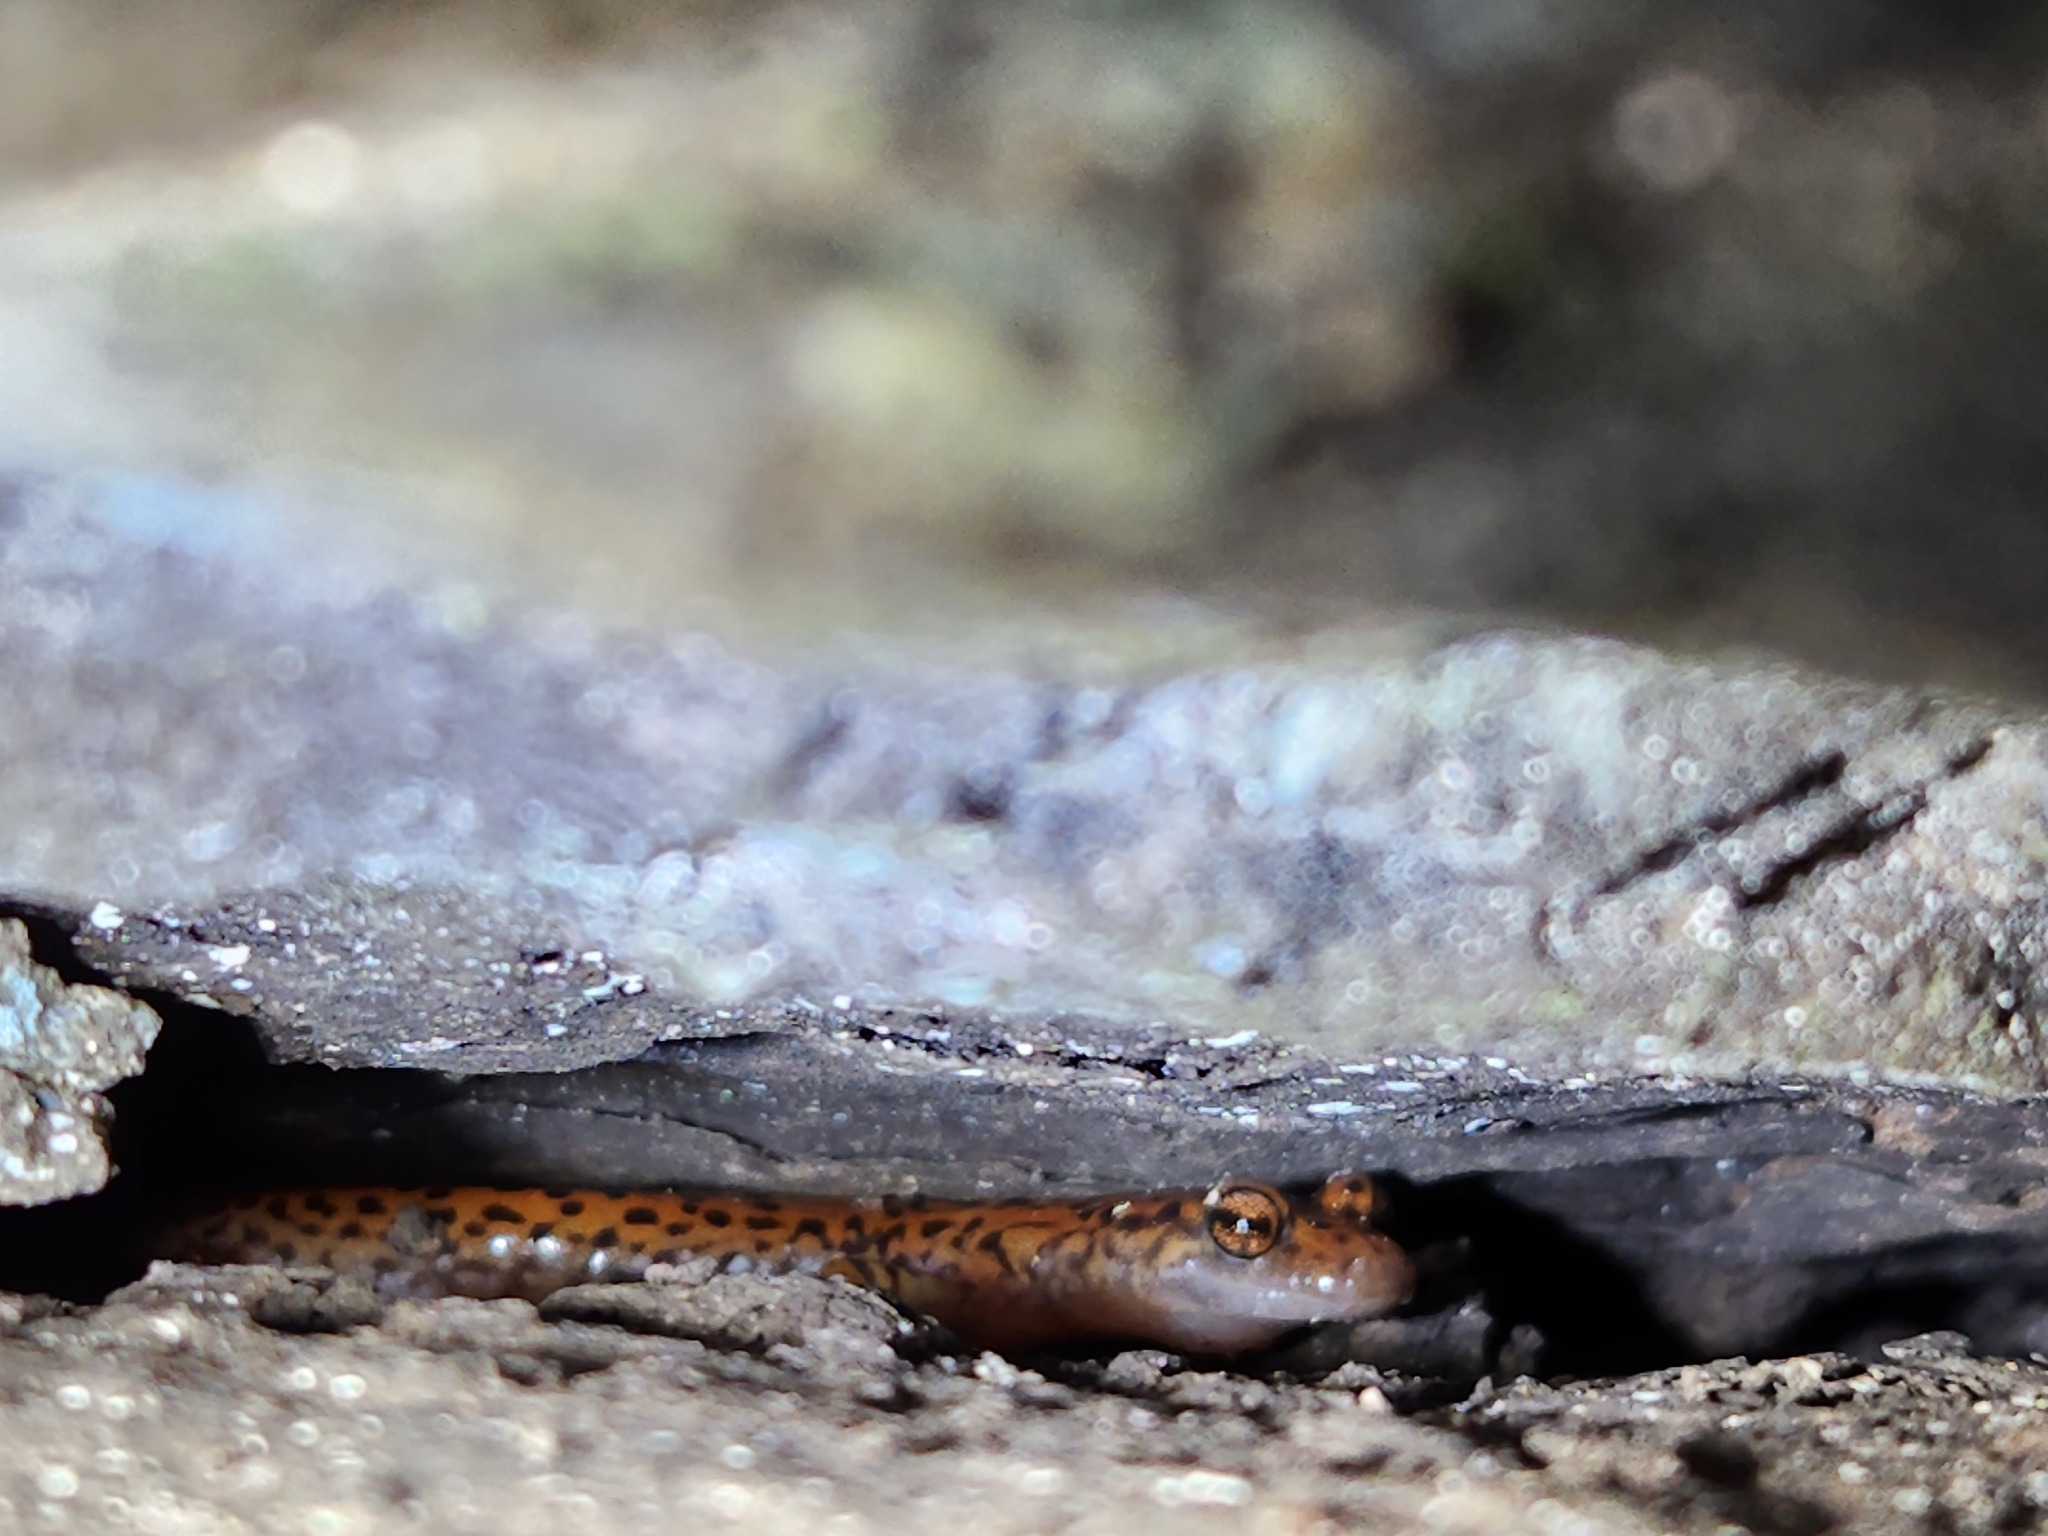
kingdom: Animalia
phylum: Chordata
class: Amphibia
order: Caudata
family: Plethodontidae
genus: Eurycea
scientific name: Eurycea lucifuga
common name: Cave salamander
